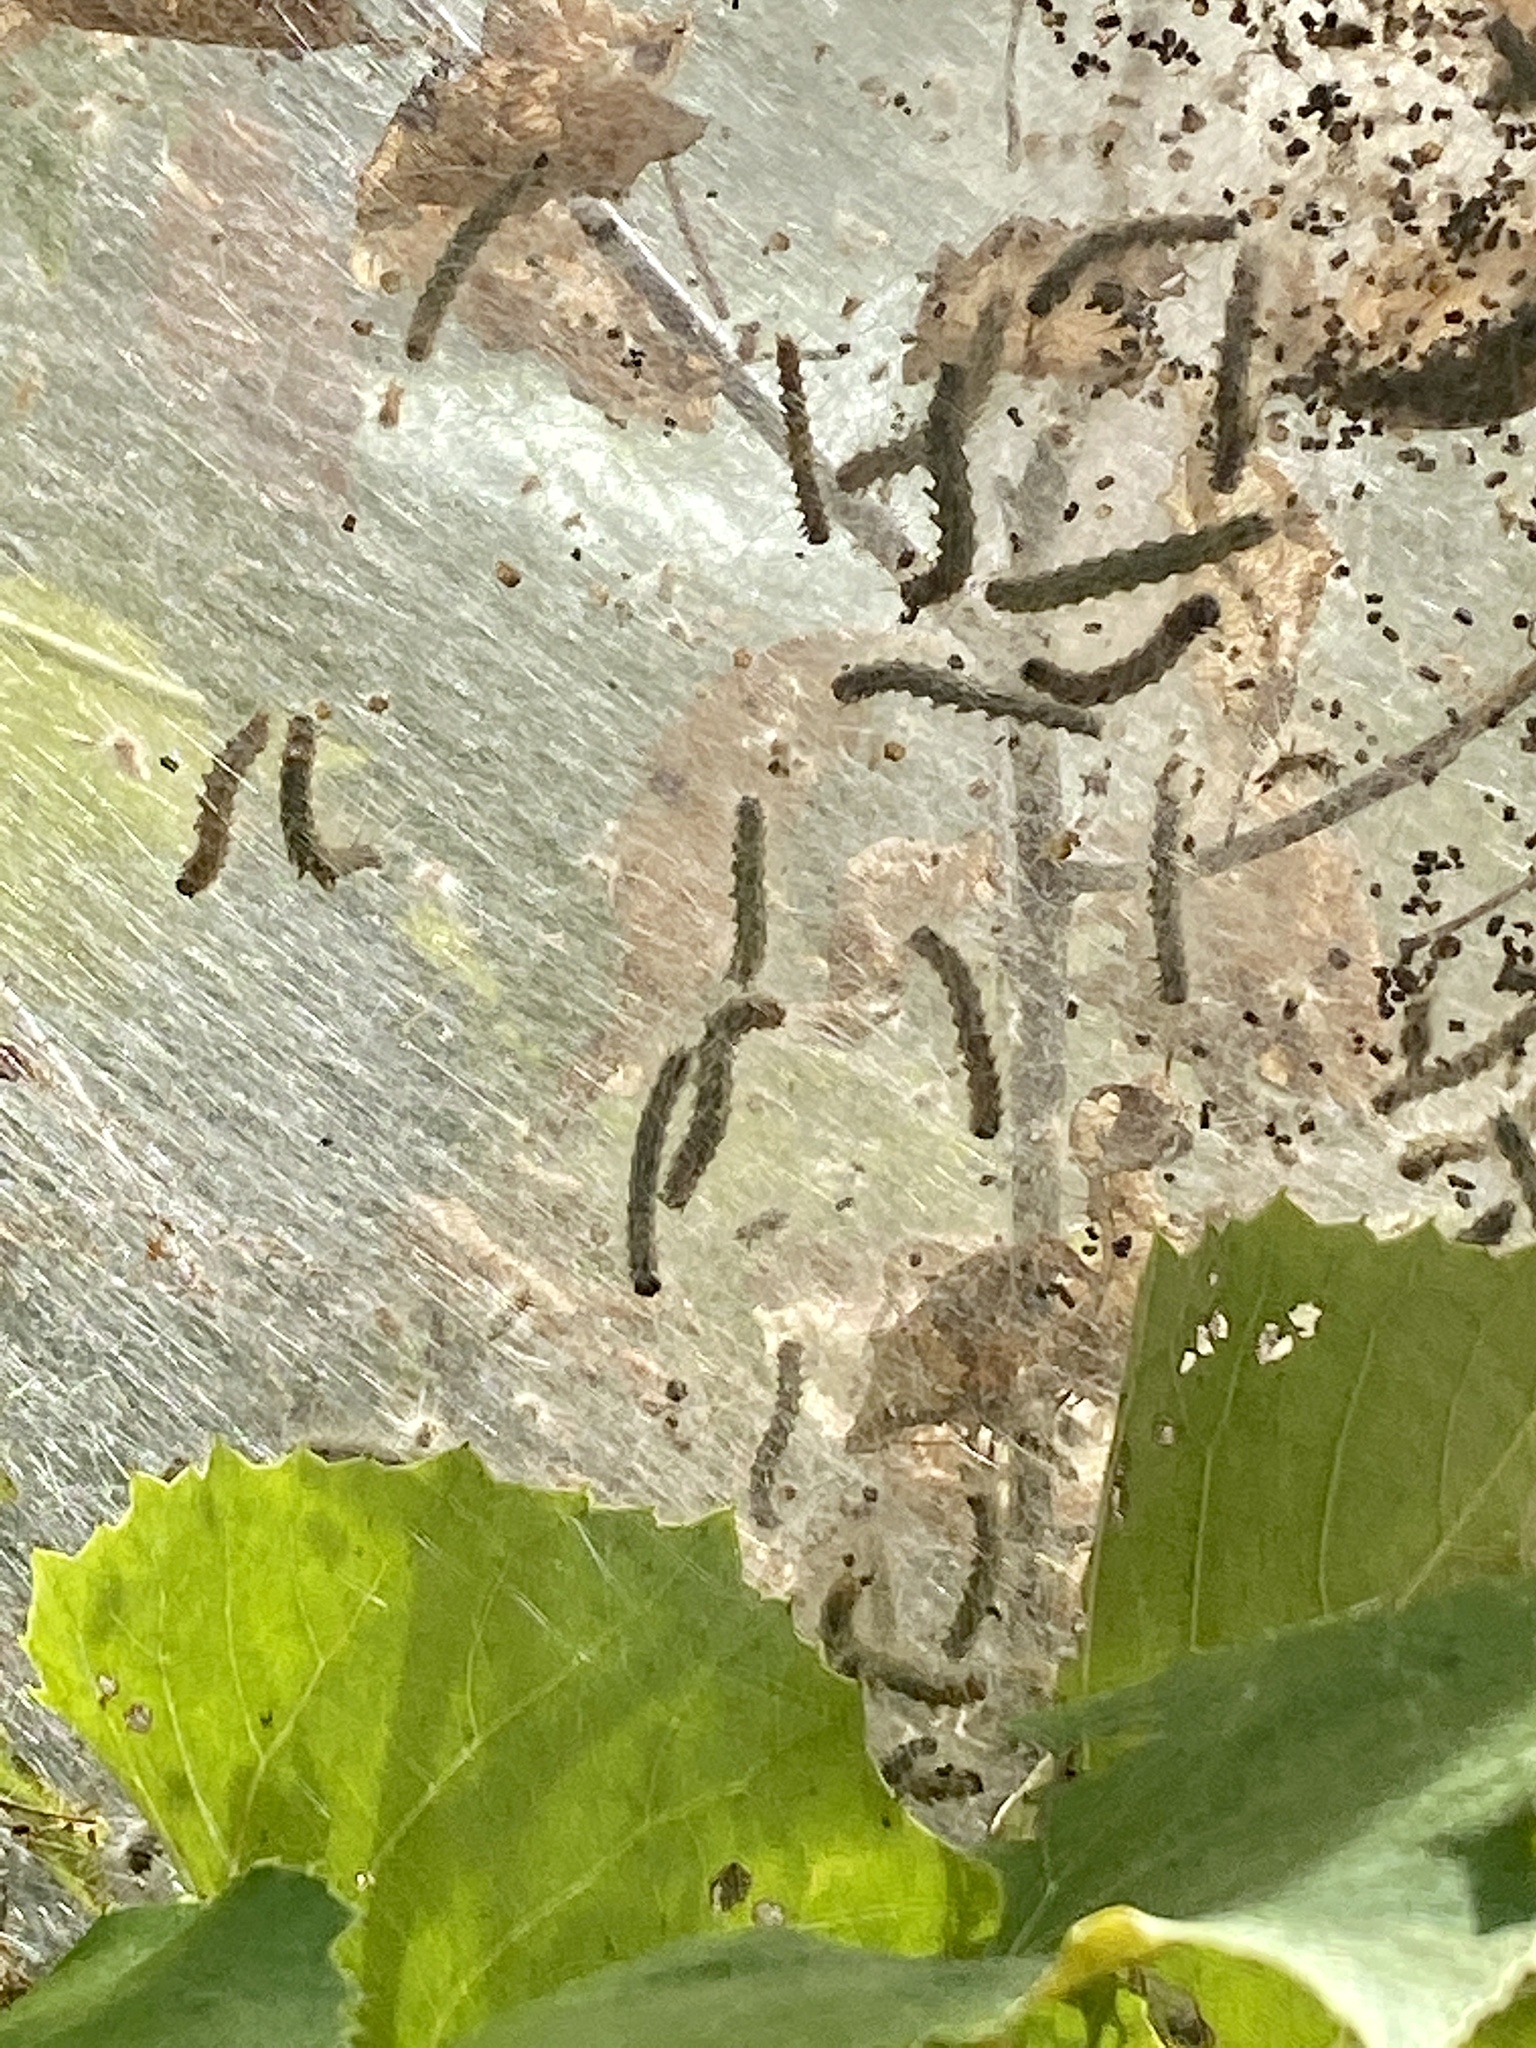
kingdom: Animalia
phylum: Arthropoda
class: Insecta
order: Lepidoptera
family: Erebidae
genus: Hyphantria
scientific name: Hyphantria cunea
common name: American white moth
